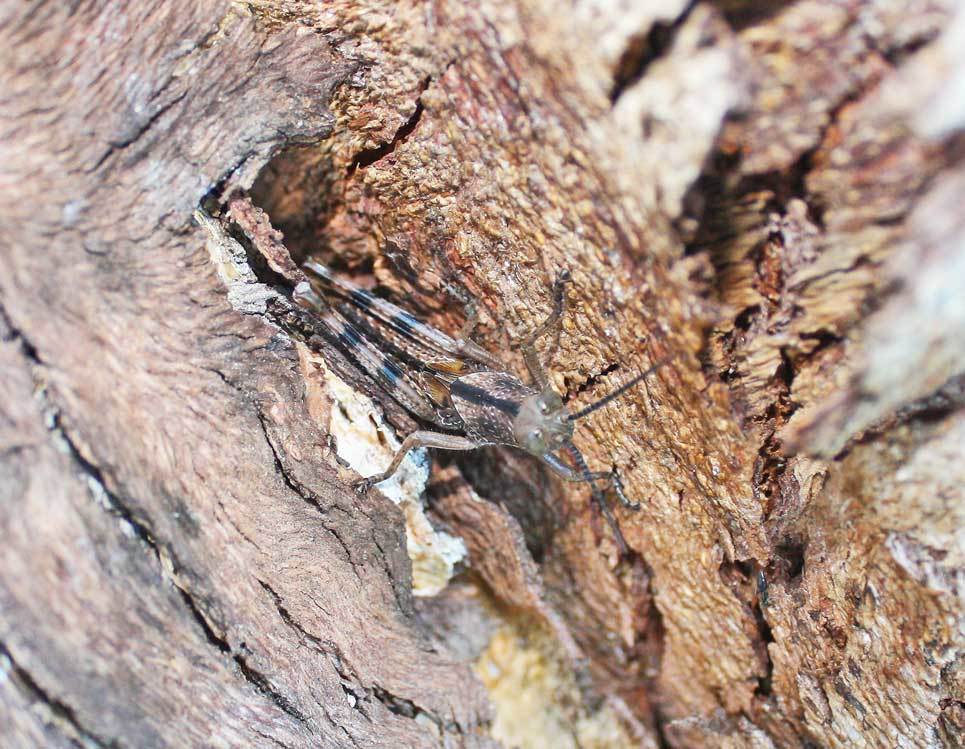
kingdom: Animalia
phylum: Arthropoda
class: Insecta
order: Orthoptera
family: Acrididae
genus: Valanga
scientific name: Valanga irregularis
